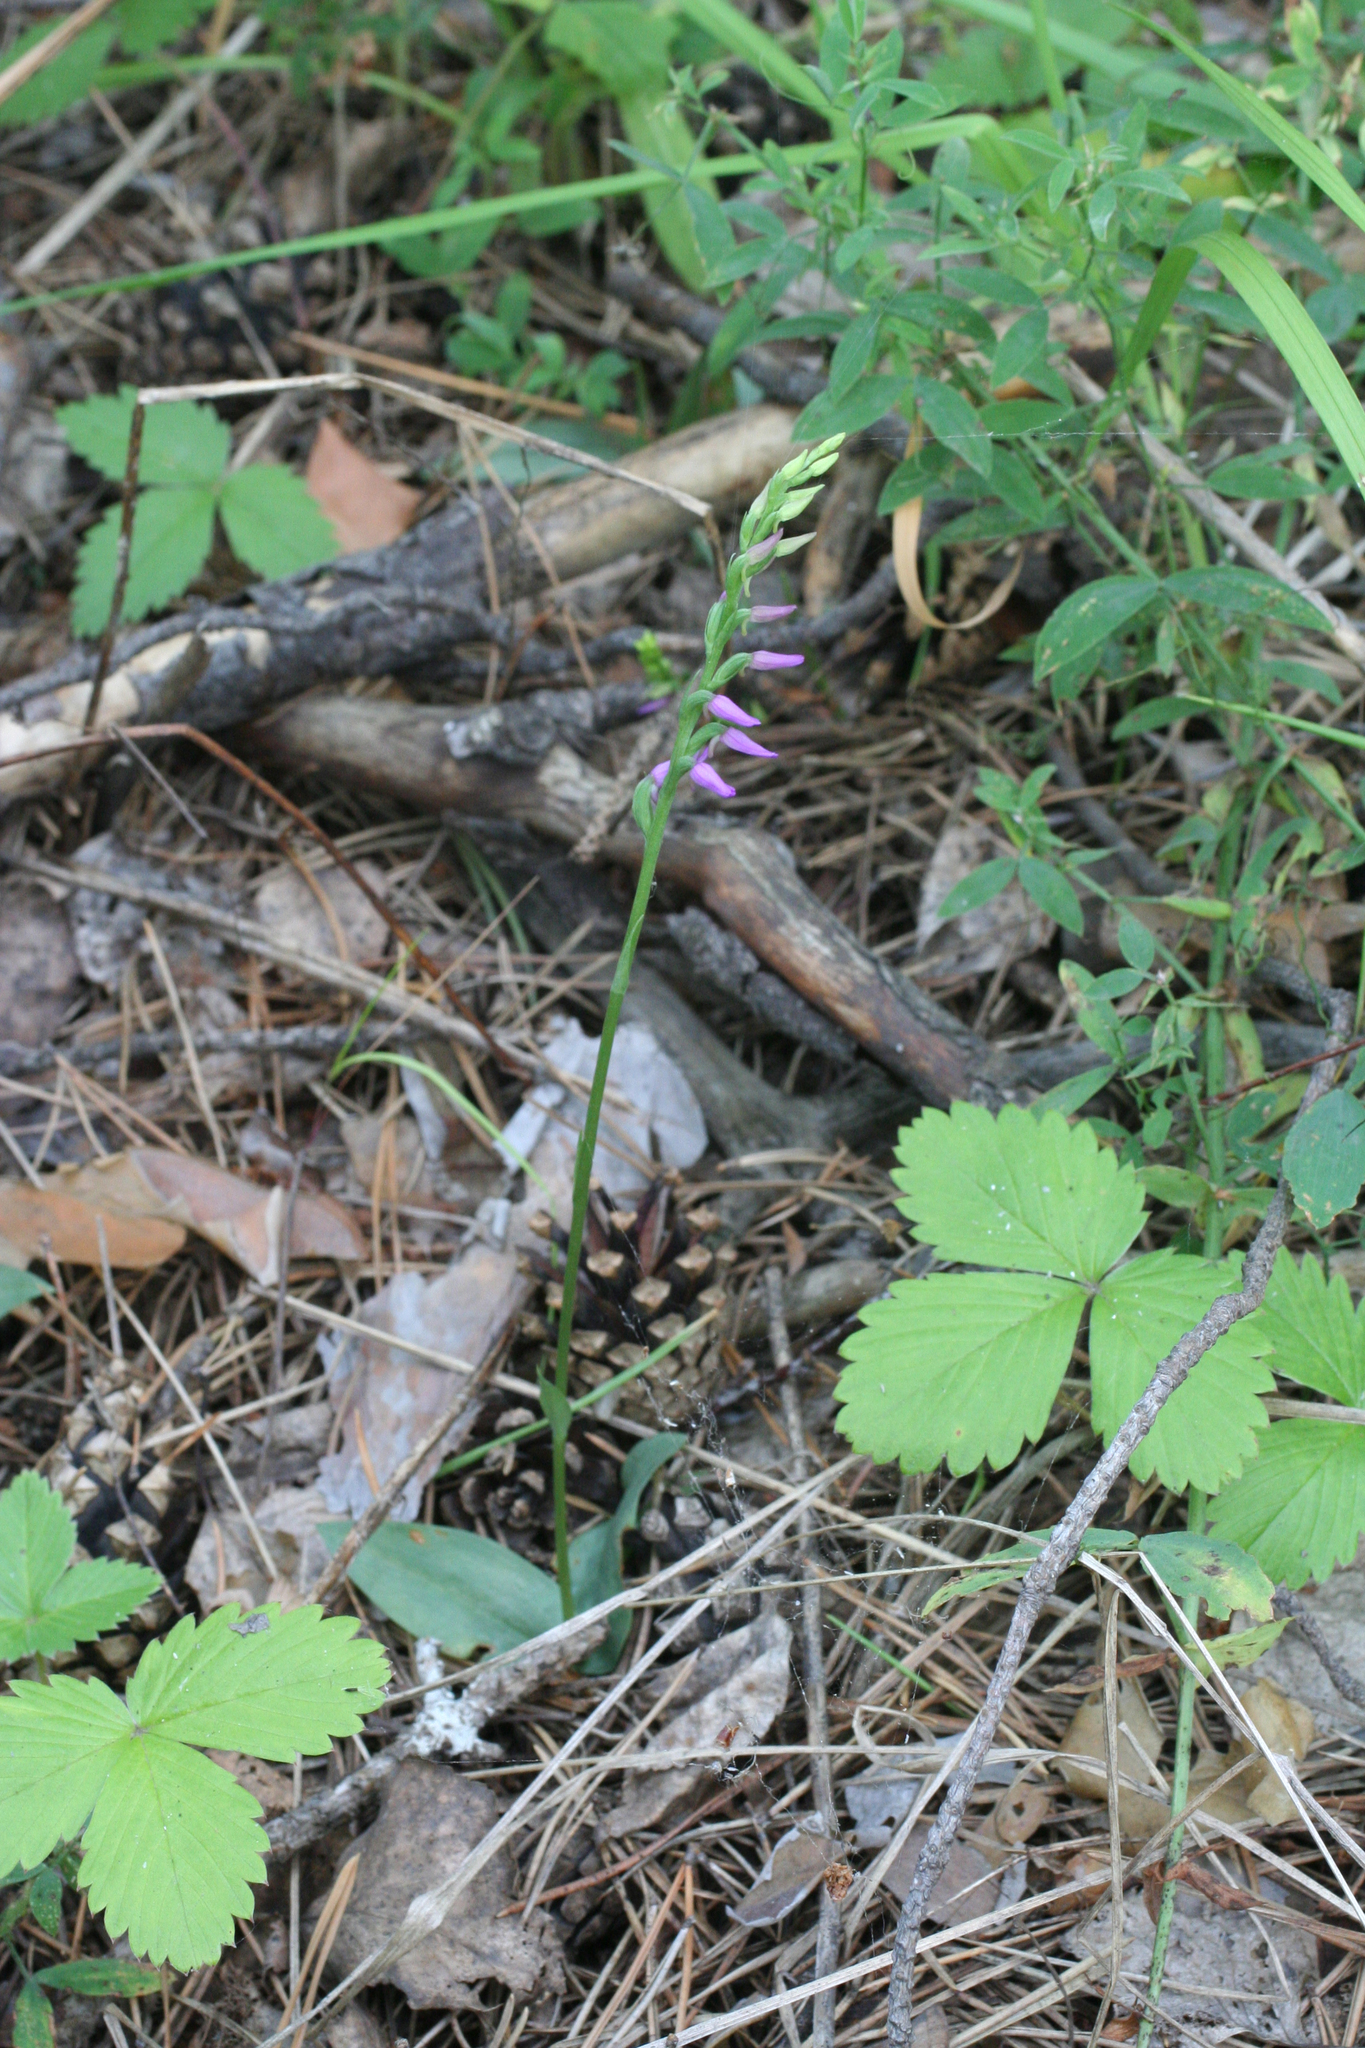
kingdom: Plantae
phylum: Tracheophyta
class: Liliopsida
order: Asparagales
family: Orchidaceae
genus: Hemipilia
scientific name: Hemipilia cucullata
